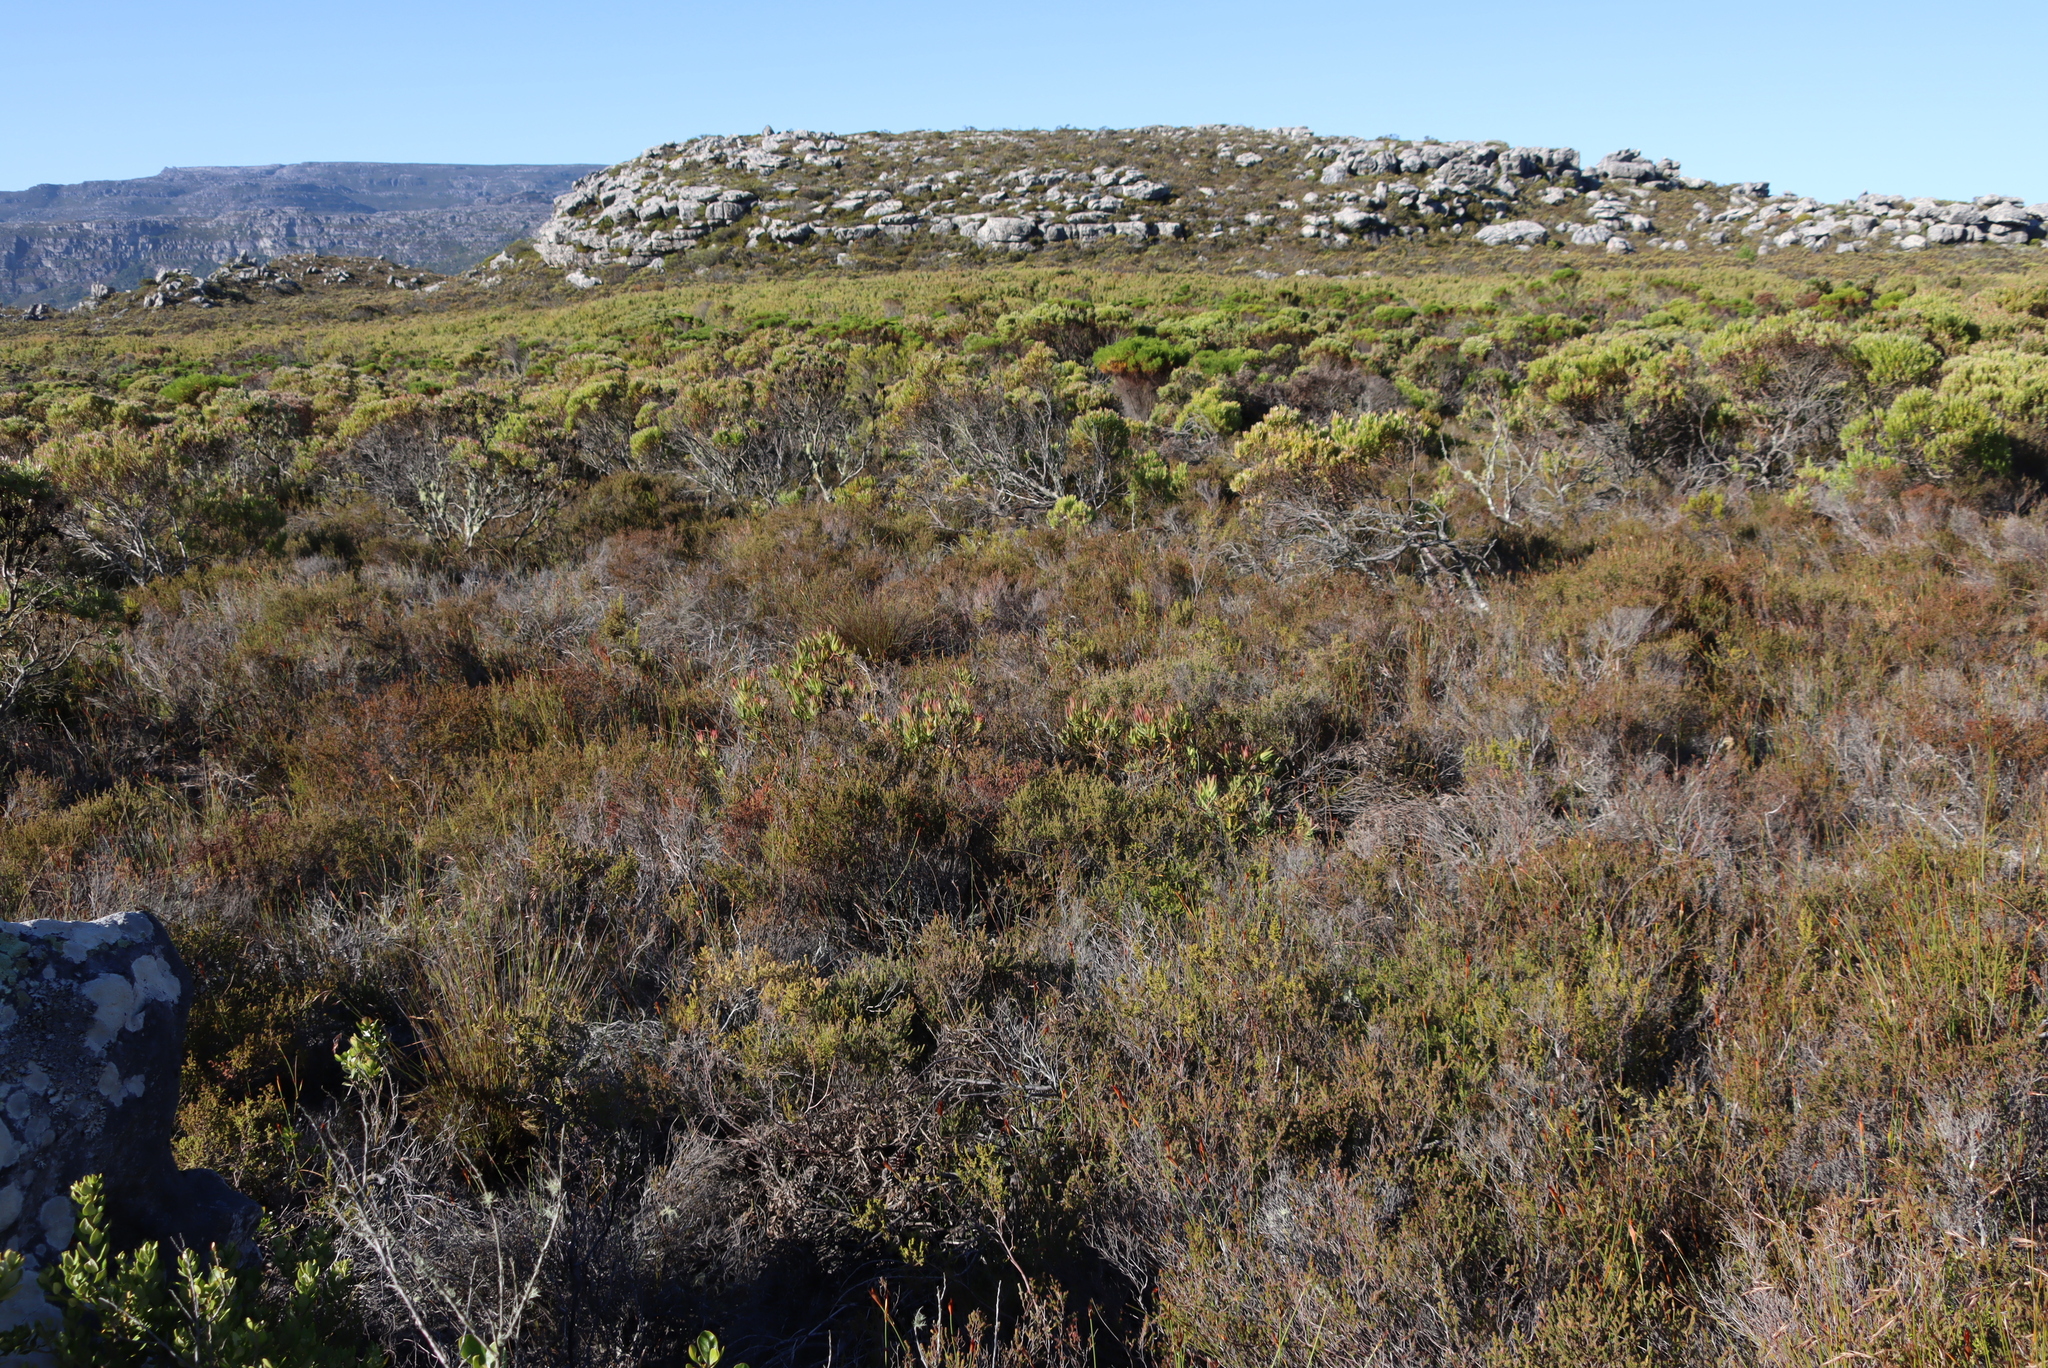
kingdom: Plantae
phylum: Tracheophyta
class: Magnoliopsida
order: Proteales
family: Proteaceae
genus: Leucadendron
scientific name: Leucadendron xanthoconus
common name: Sickle-leaf conebush
